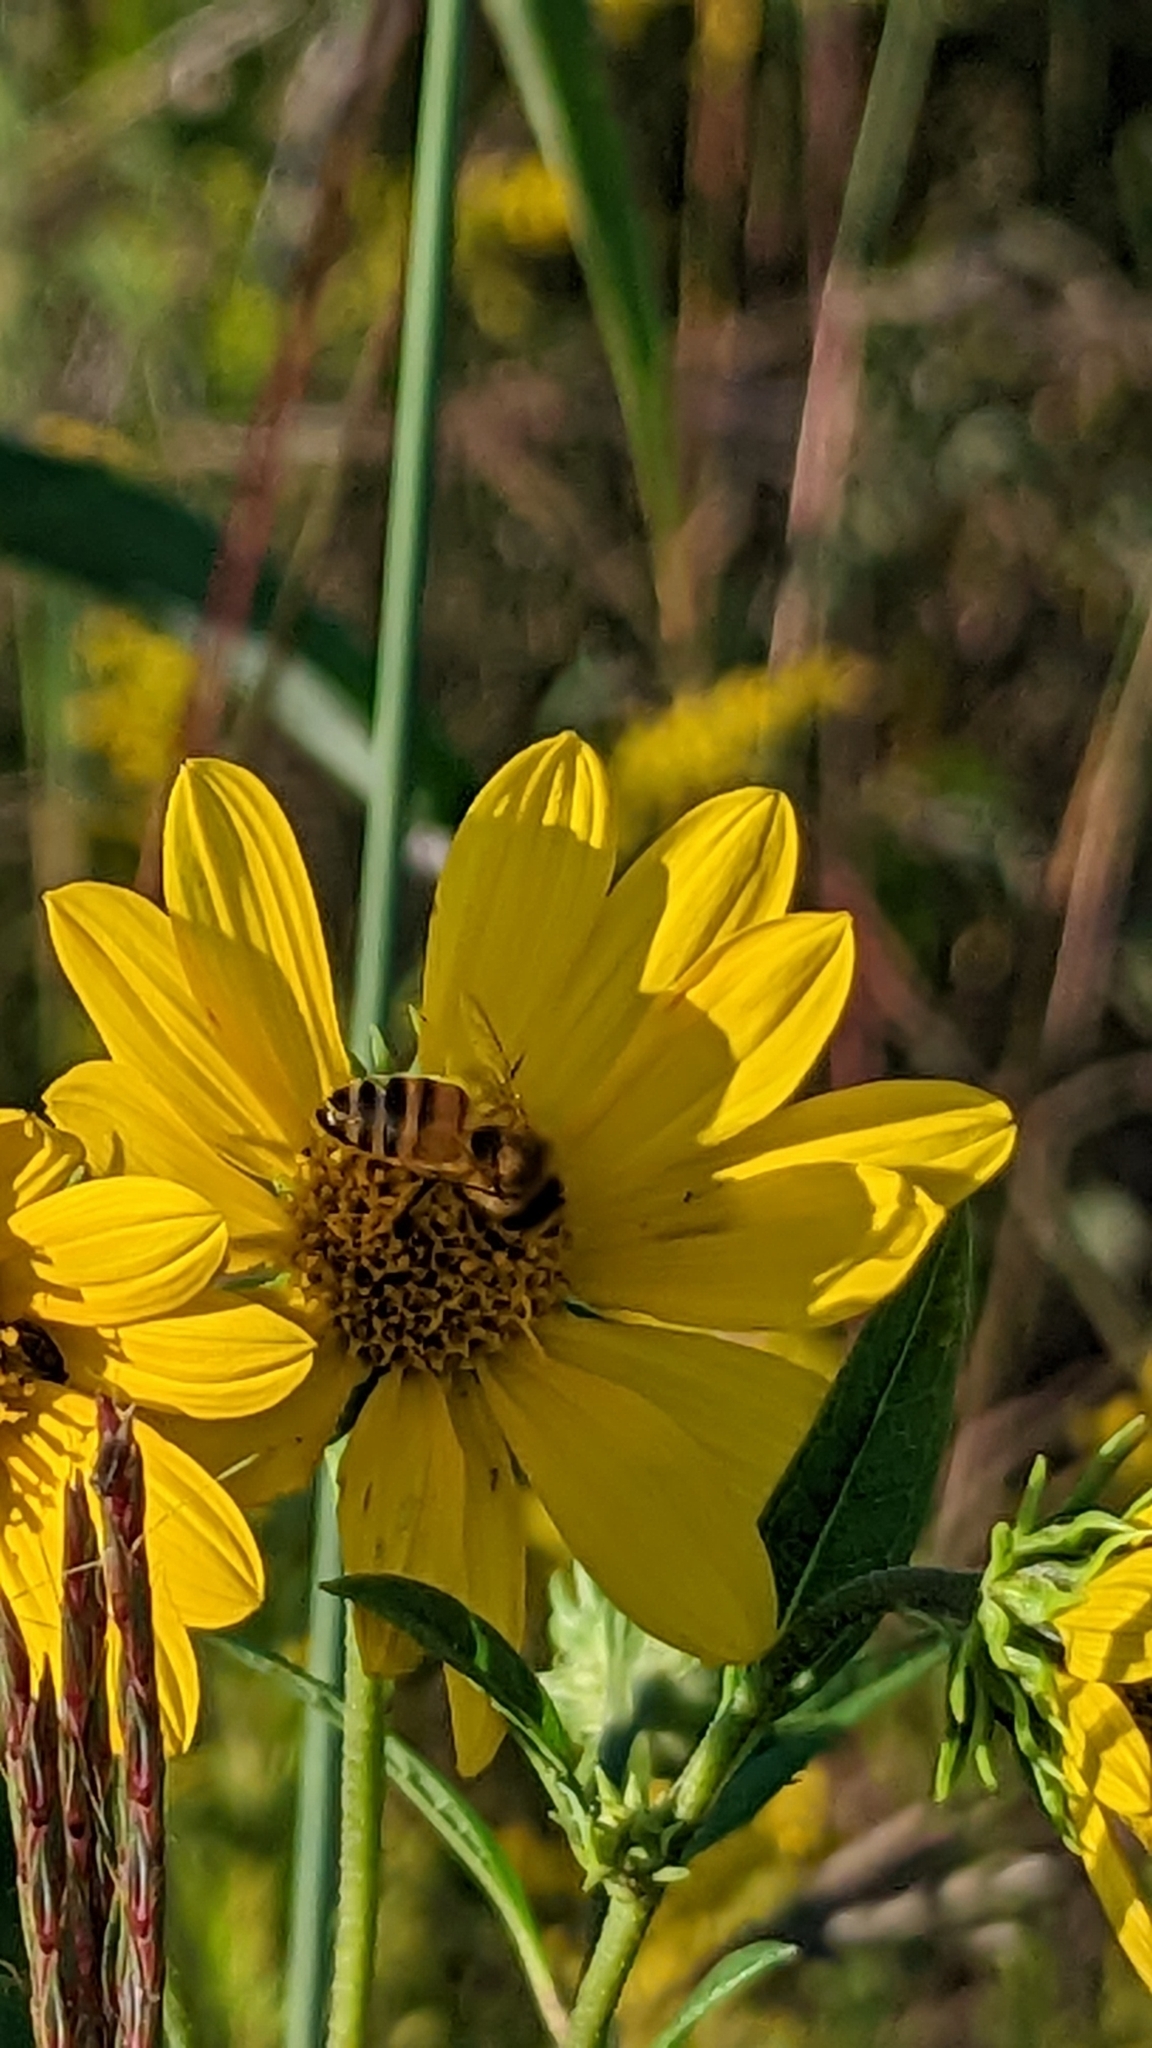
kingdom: Animalia
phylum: Arthropoda
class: Insecta
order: Hymenoptera
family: Apidae
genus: Apis
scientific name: Apis mellifera
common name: Honey bee
